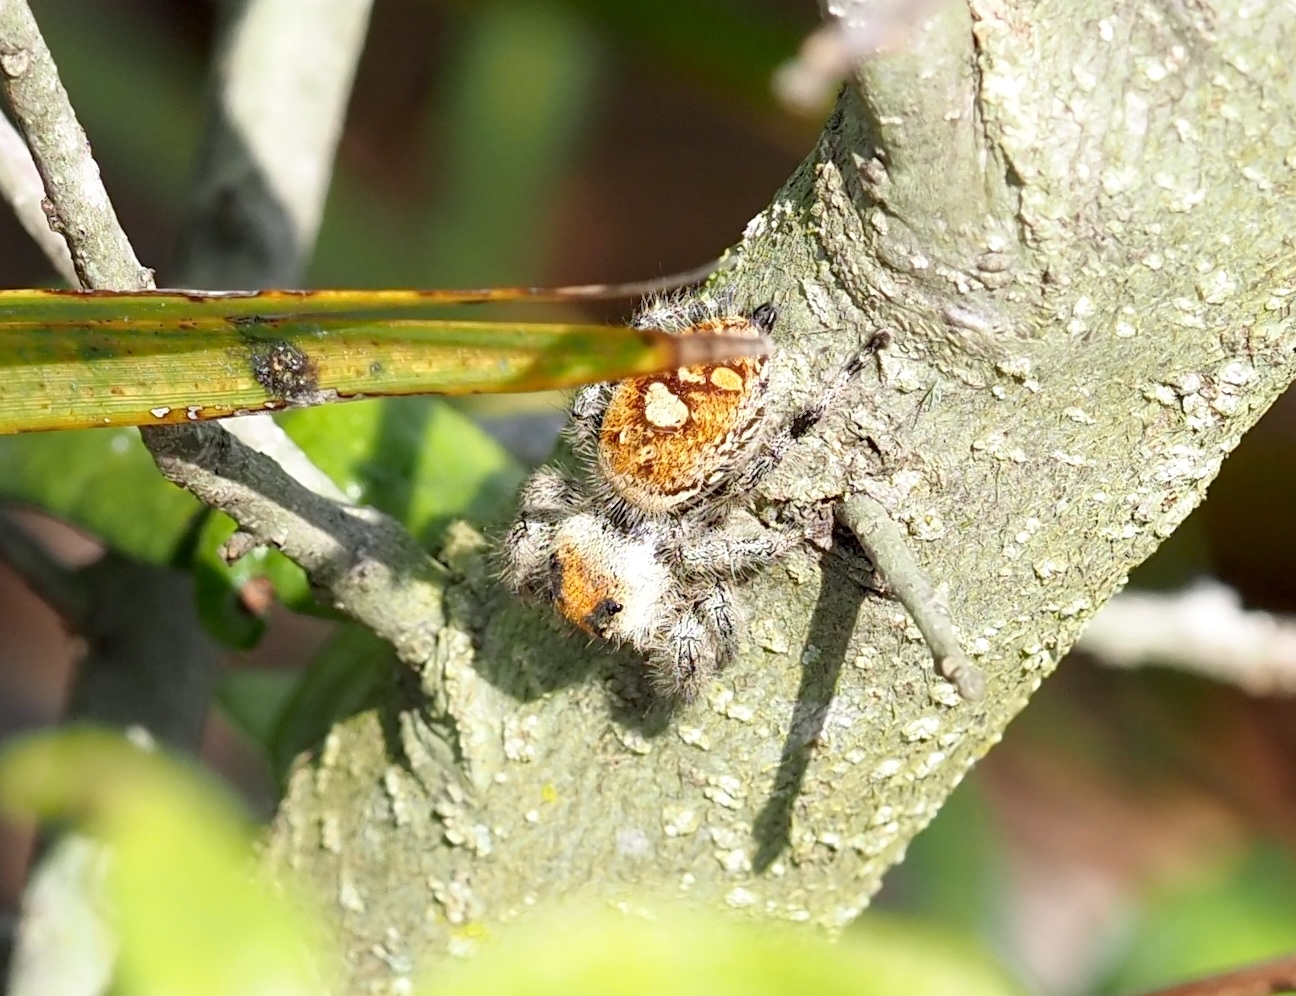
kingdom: Animalia
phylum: Arthropoda
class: Arachnida
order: Araneae
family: Salticidae
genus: Phidippus
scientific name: Phidippus regius
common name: Regal jumper
